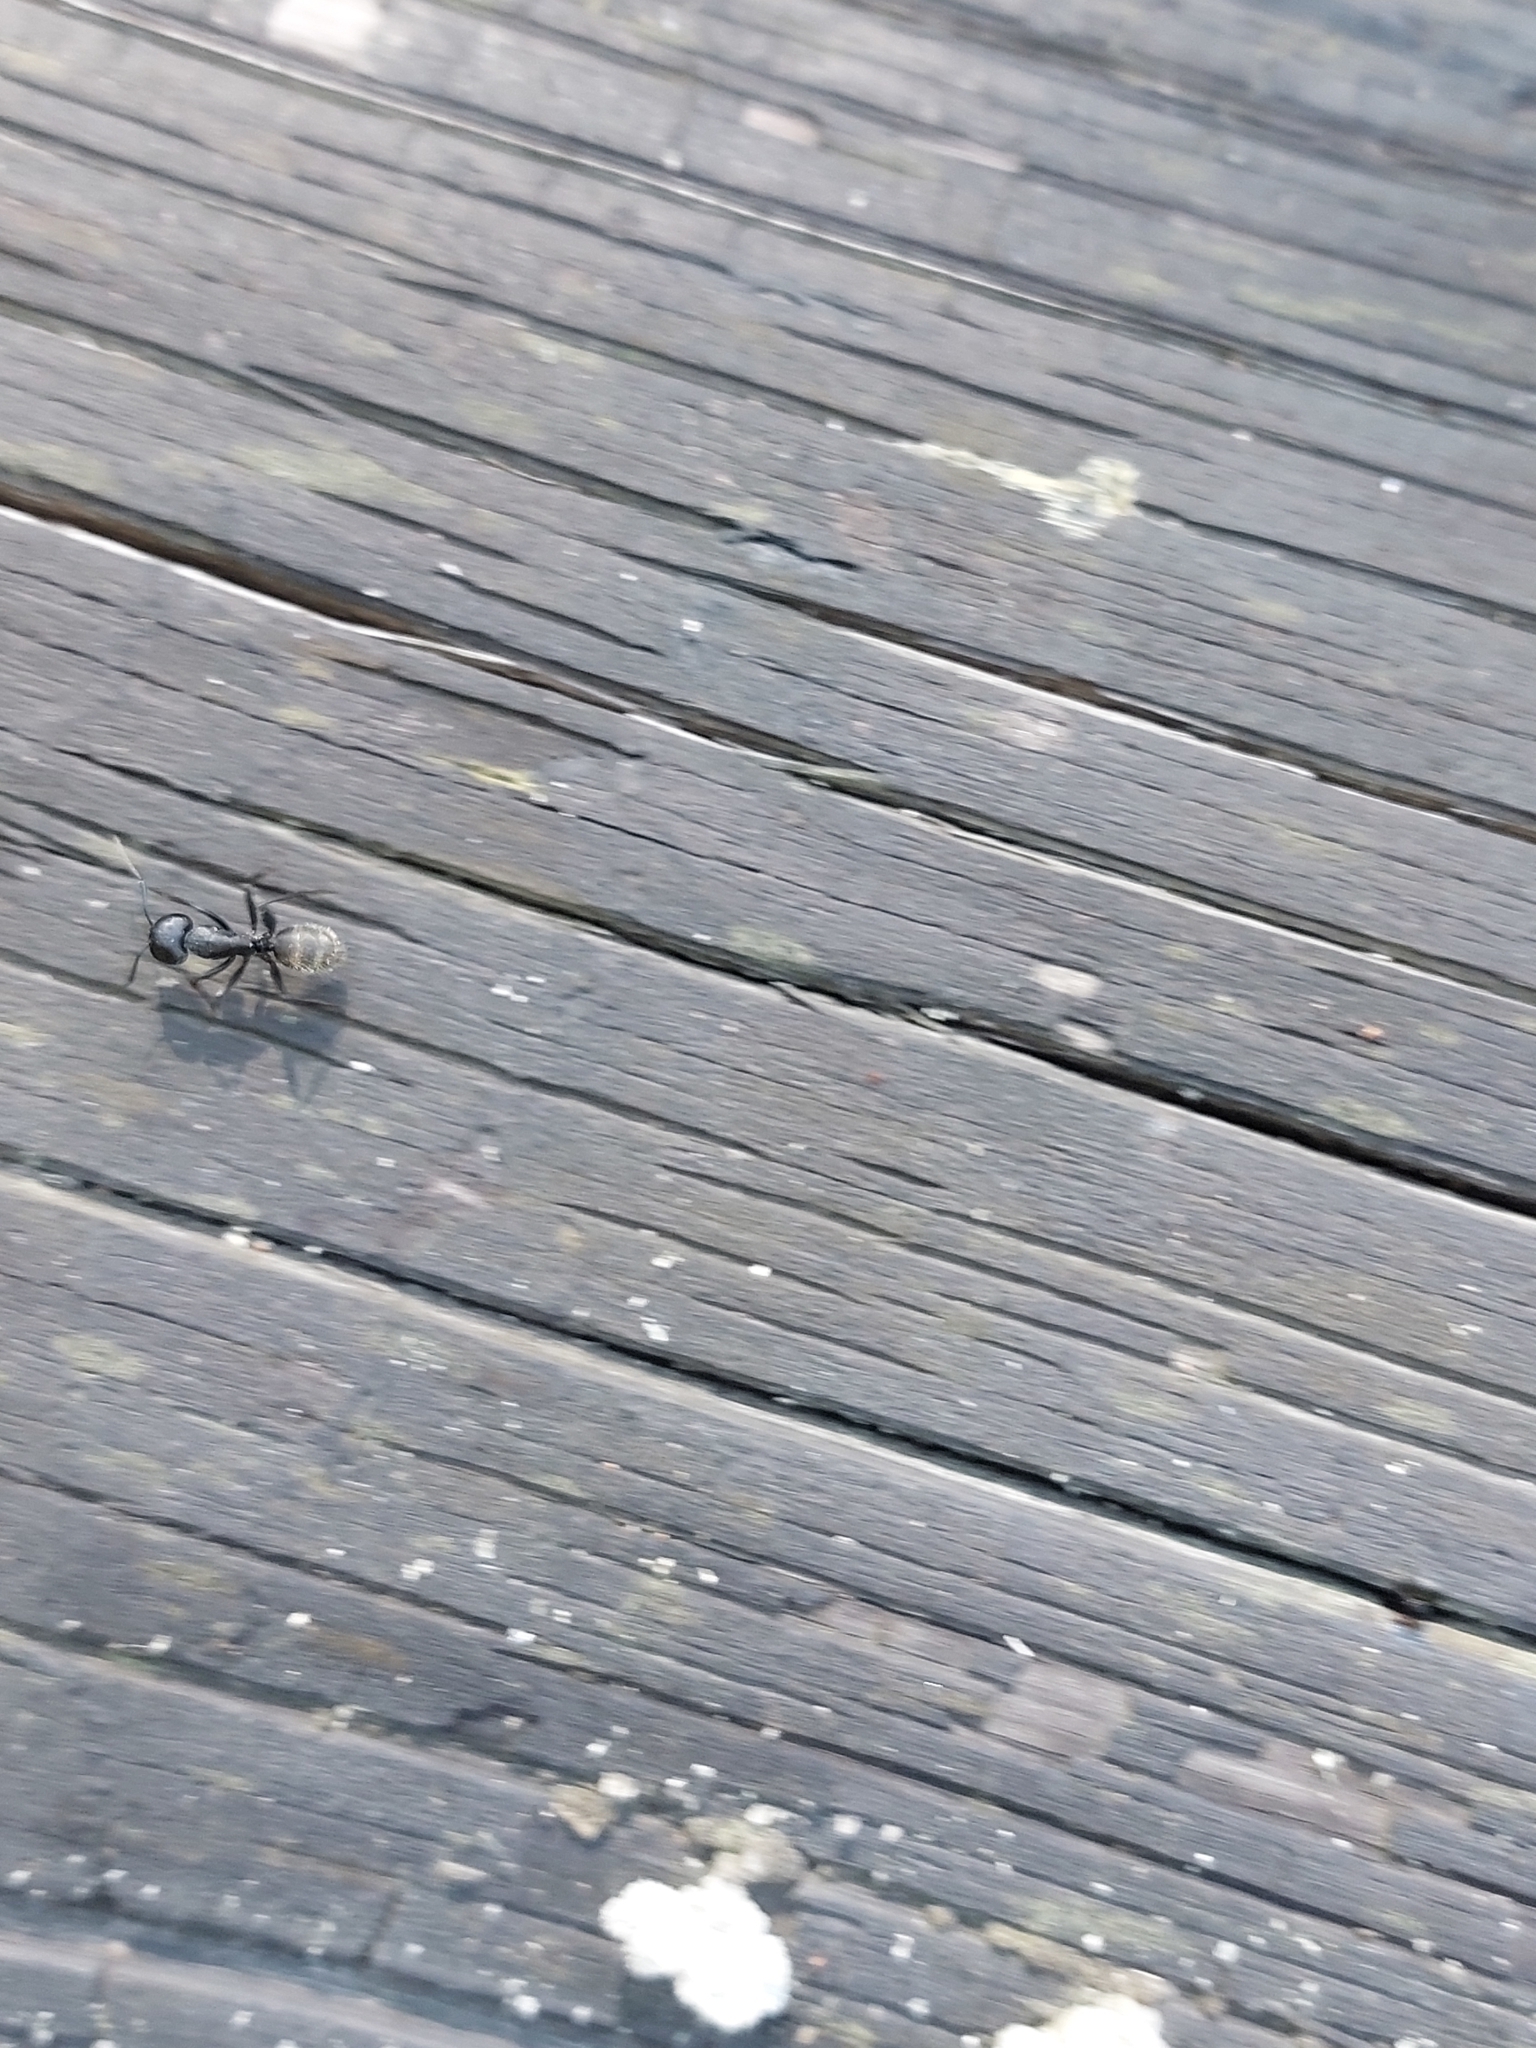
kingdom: Animalia
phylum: Arthropoda
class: Insecta
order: Hymenoptera
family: Formicidae
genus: Camponotus
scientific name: Camponotus vagus
